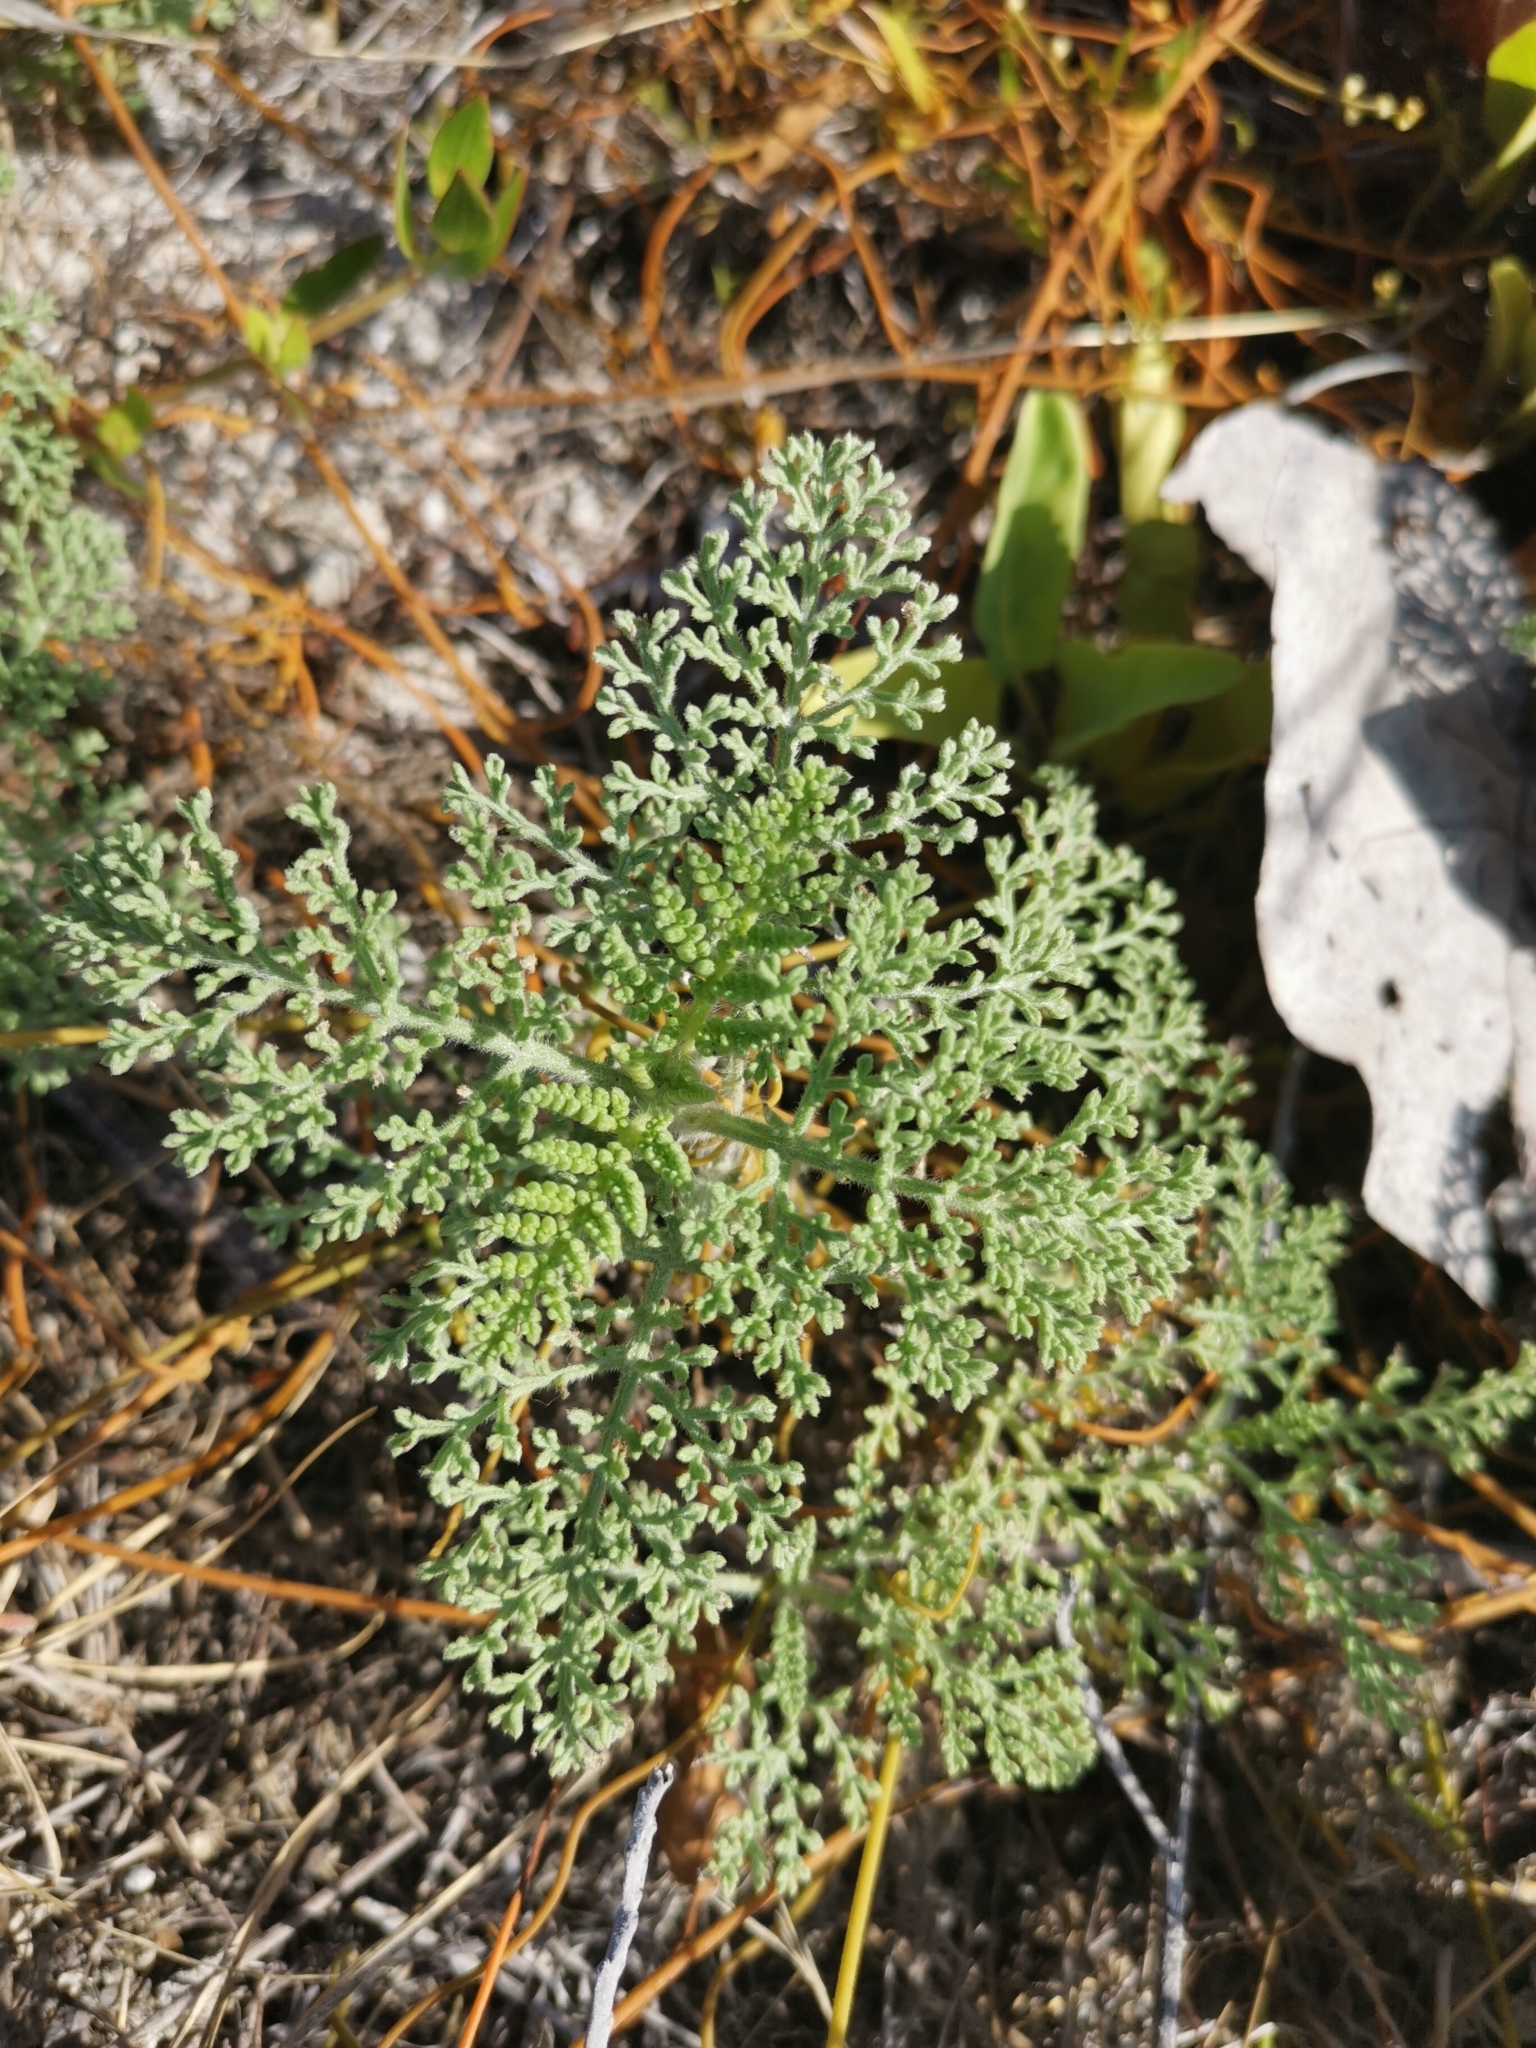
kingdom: Plantae
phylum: Tracheophyta
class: Magnoliopsida
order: Asterales
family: Asteraceae
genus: Ambrosia
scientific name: Ambrosia hispida
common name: Coastal ragweed
